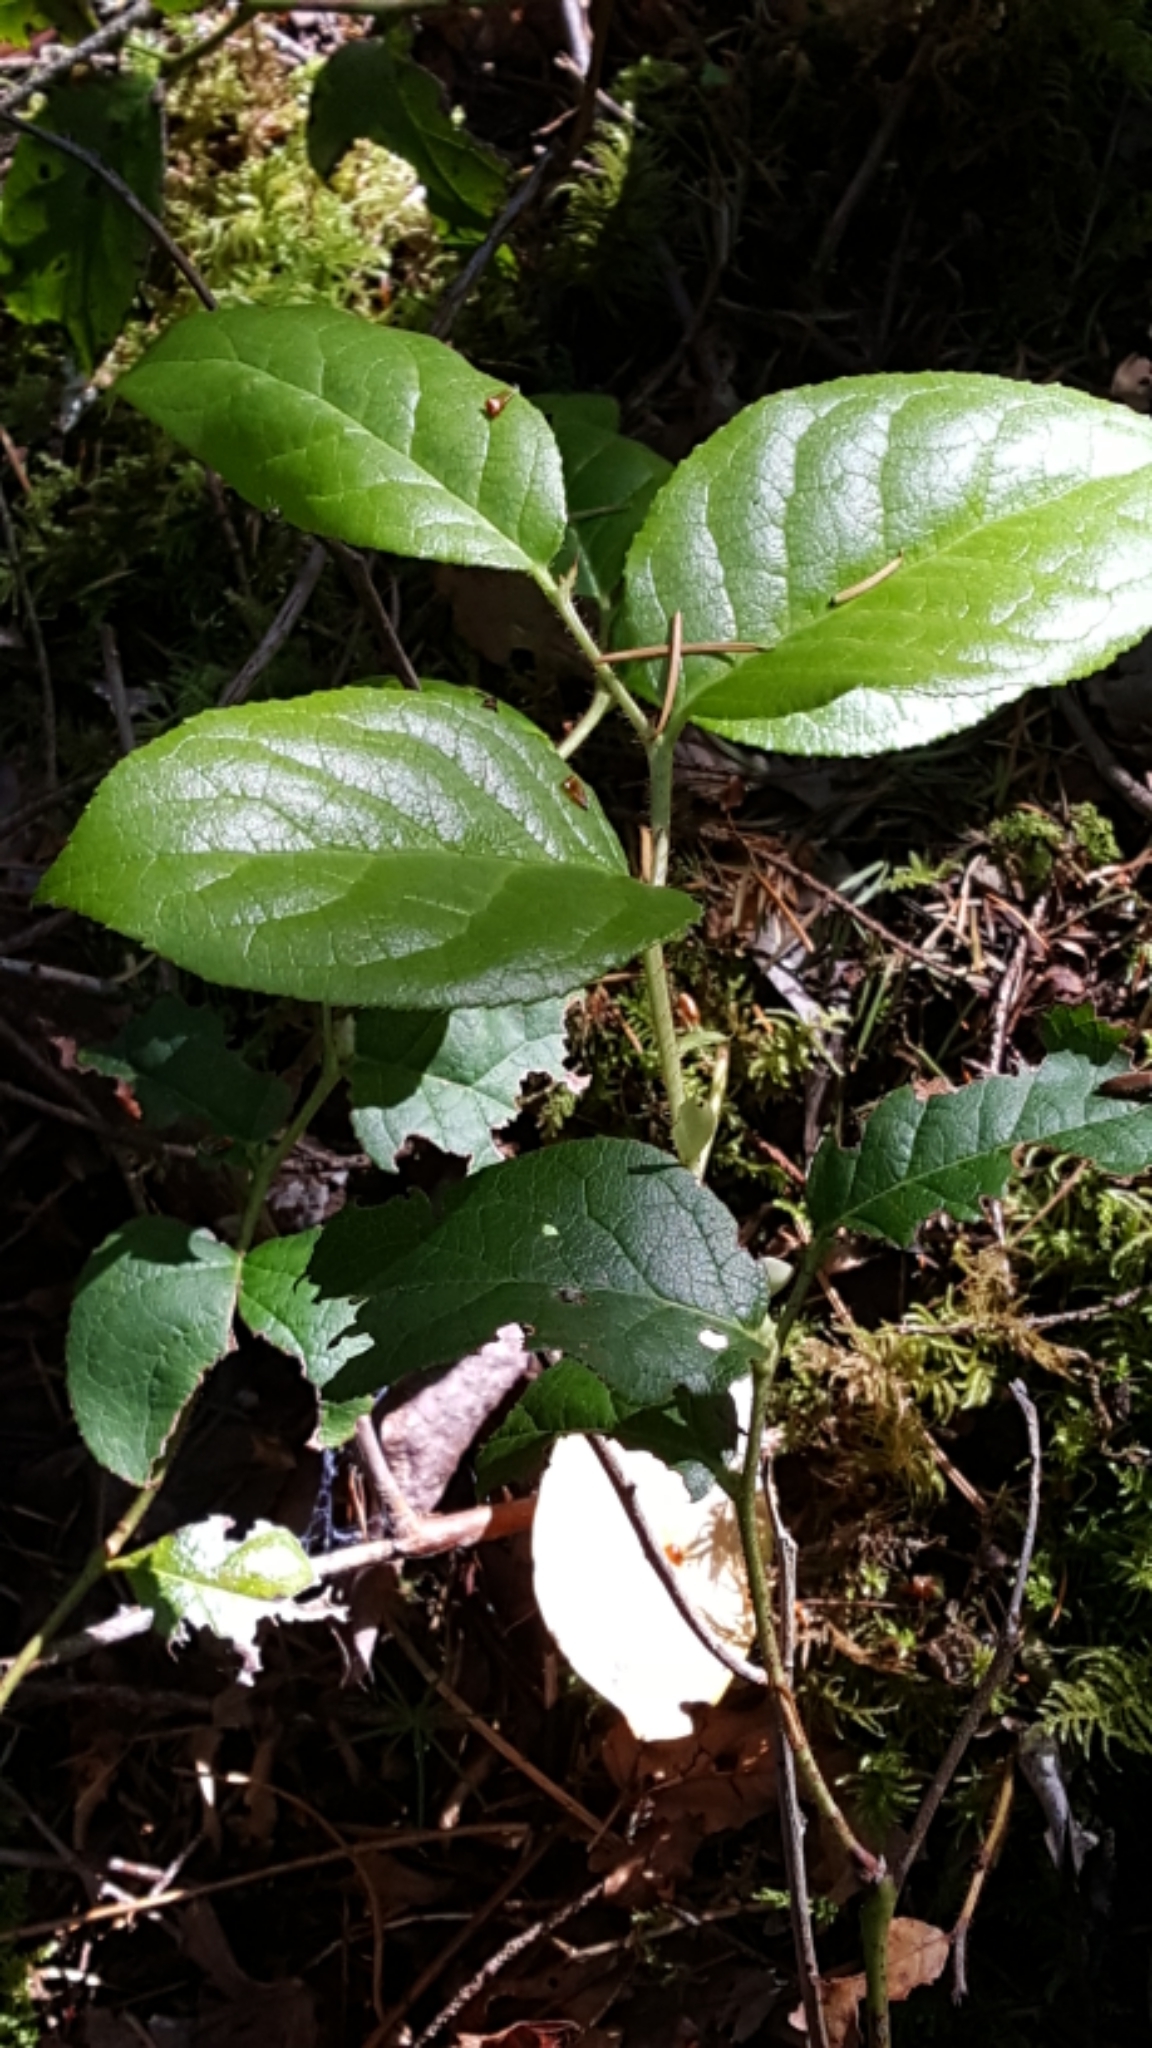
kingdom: Plantae
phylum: Tracheophyta
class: Magnoliopsida
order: Ericales
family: Ericaceae
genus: Gaultheria
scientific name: Gaultheria shallon
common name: Shallon
